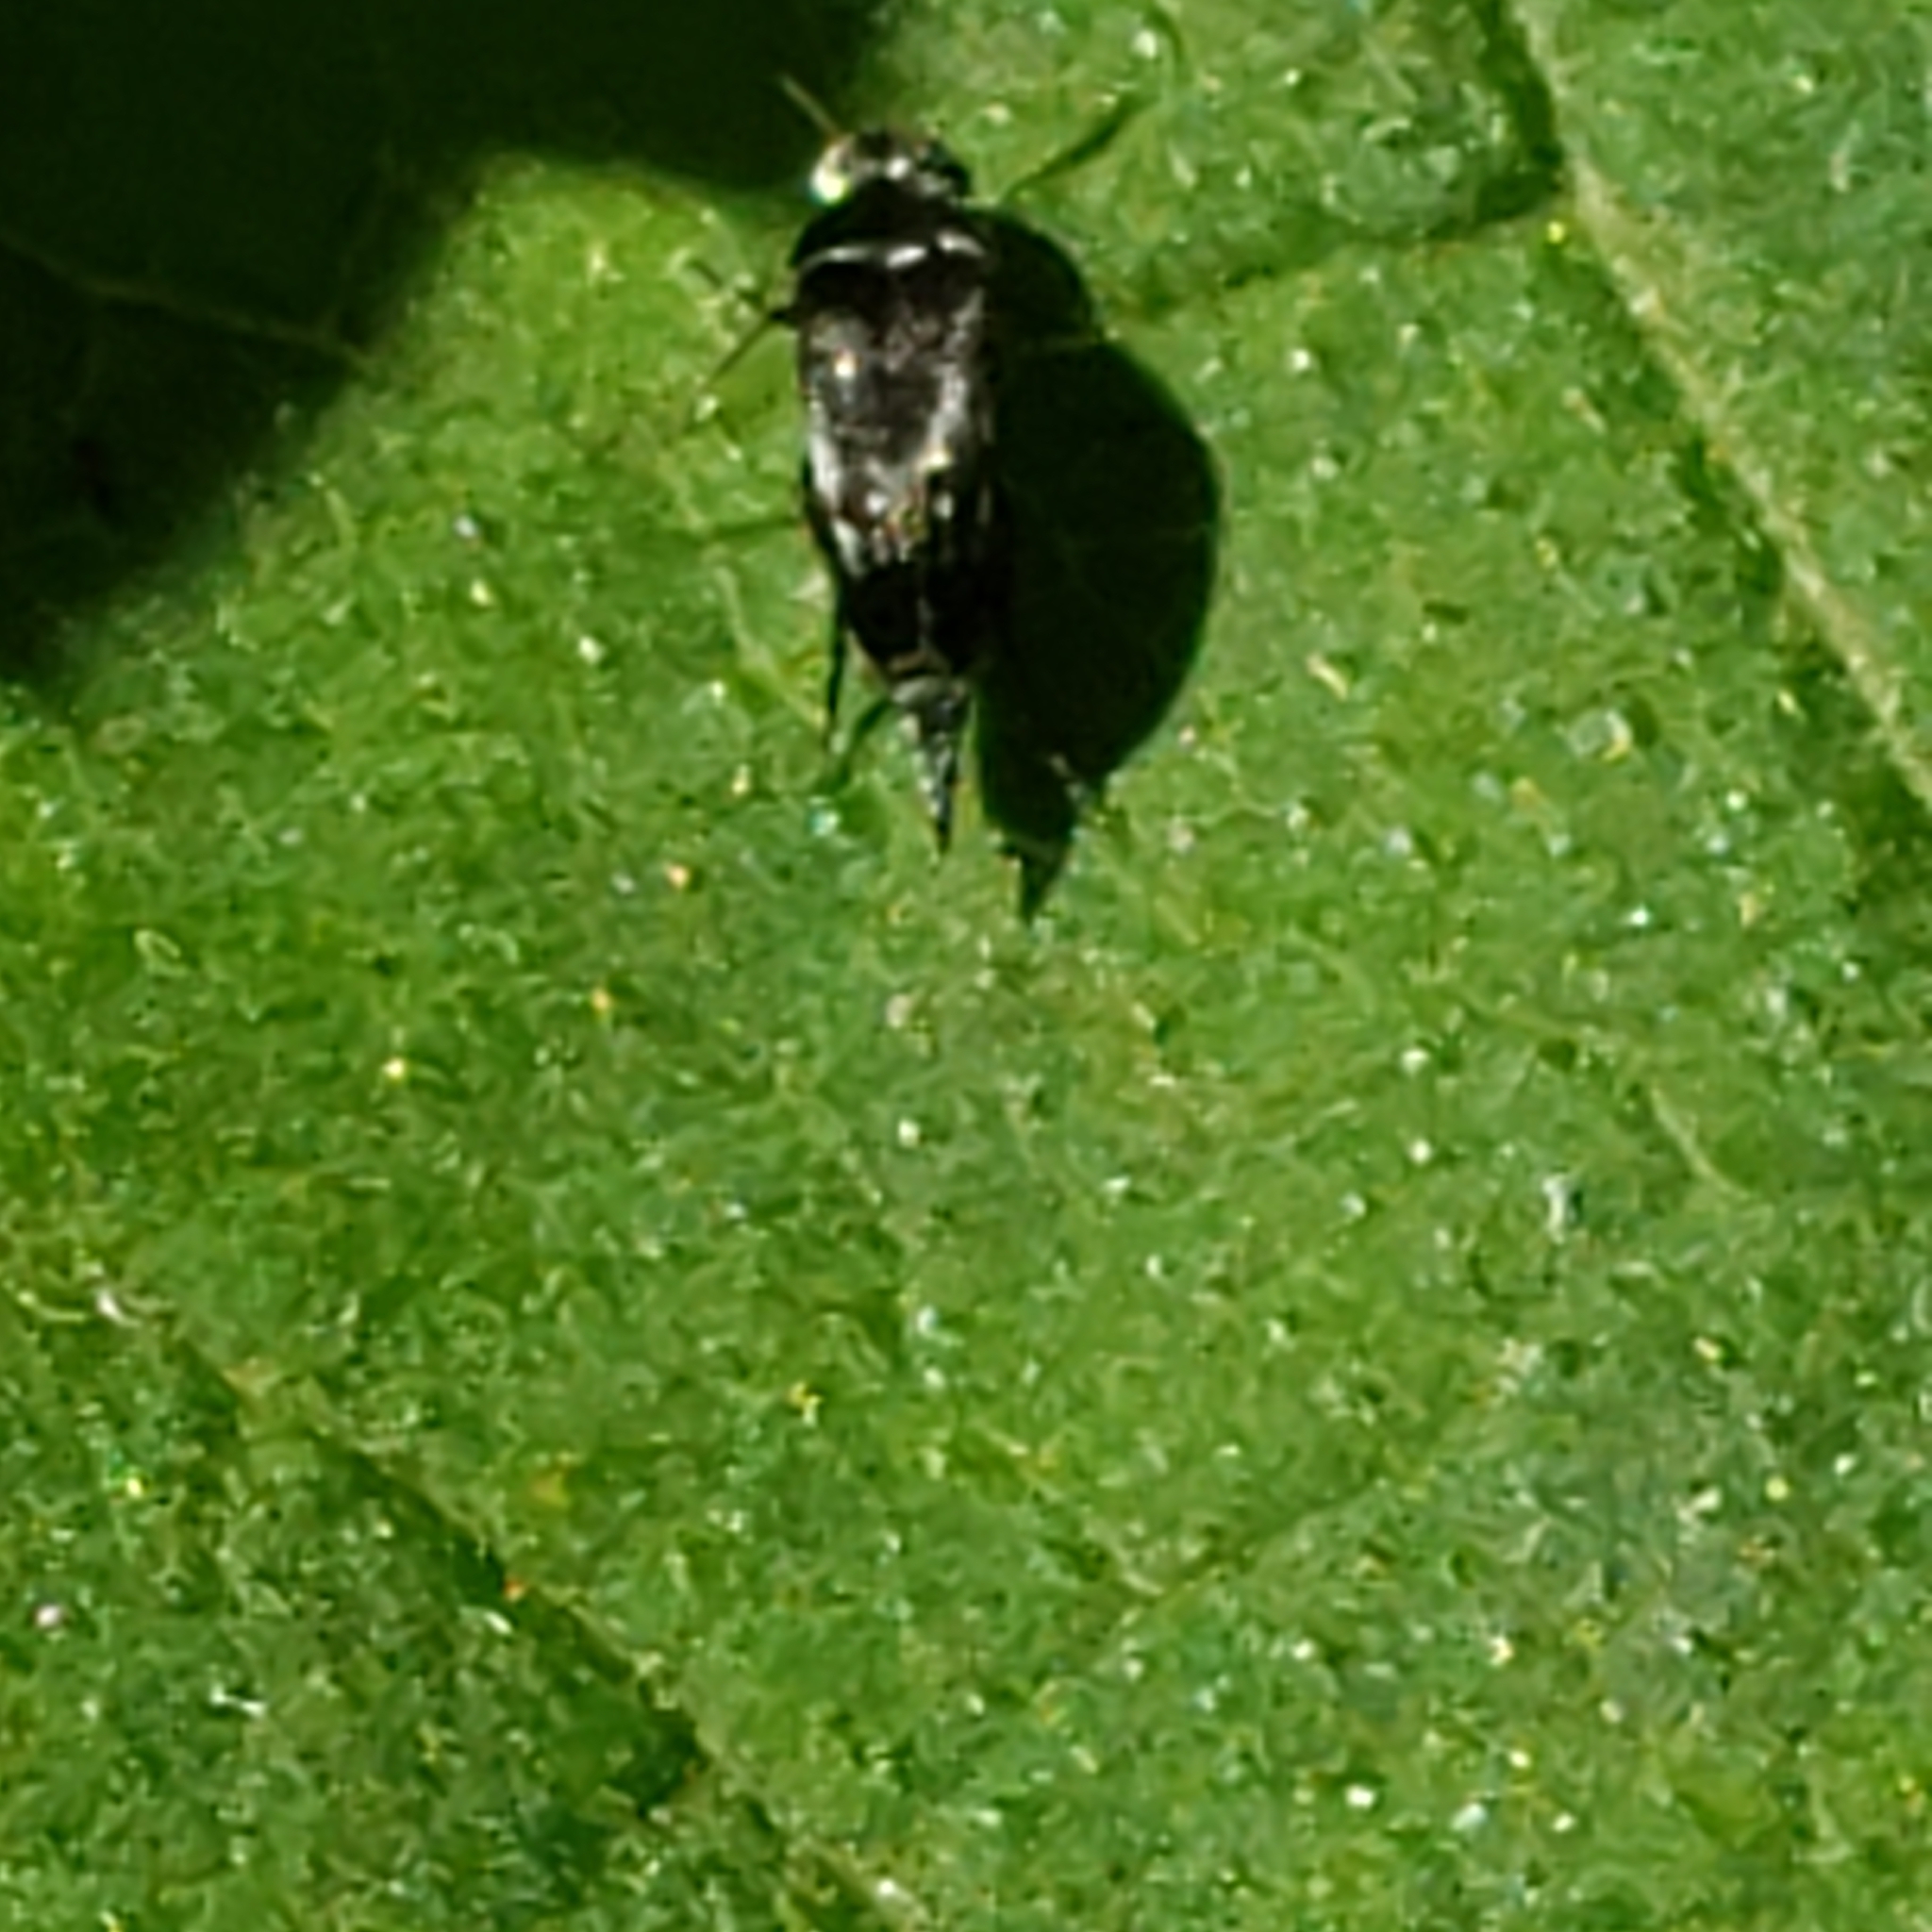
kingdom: Animalia
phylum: Arthropoda
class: Insecta
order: Coleoptera
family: Mordellidae
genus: Mordella
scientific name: Mordella marginata
